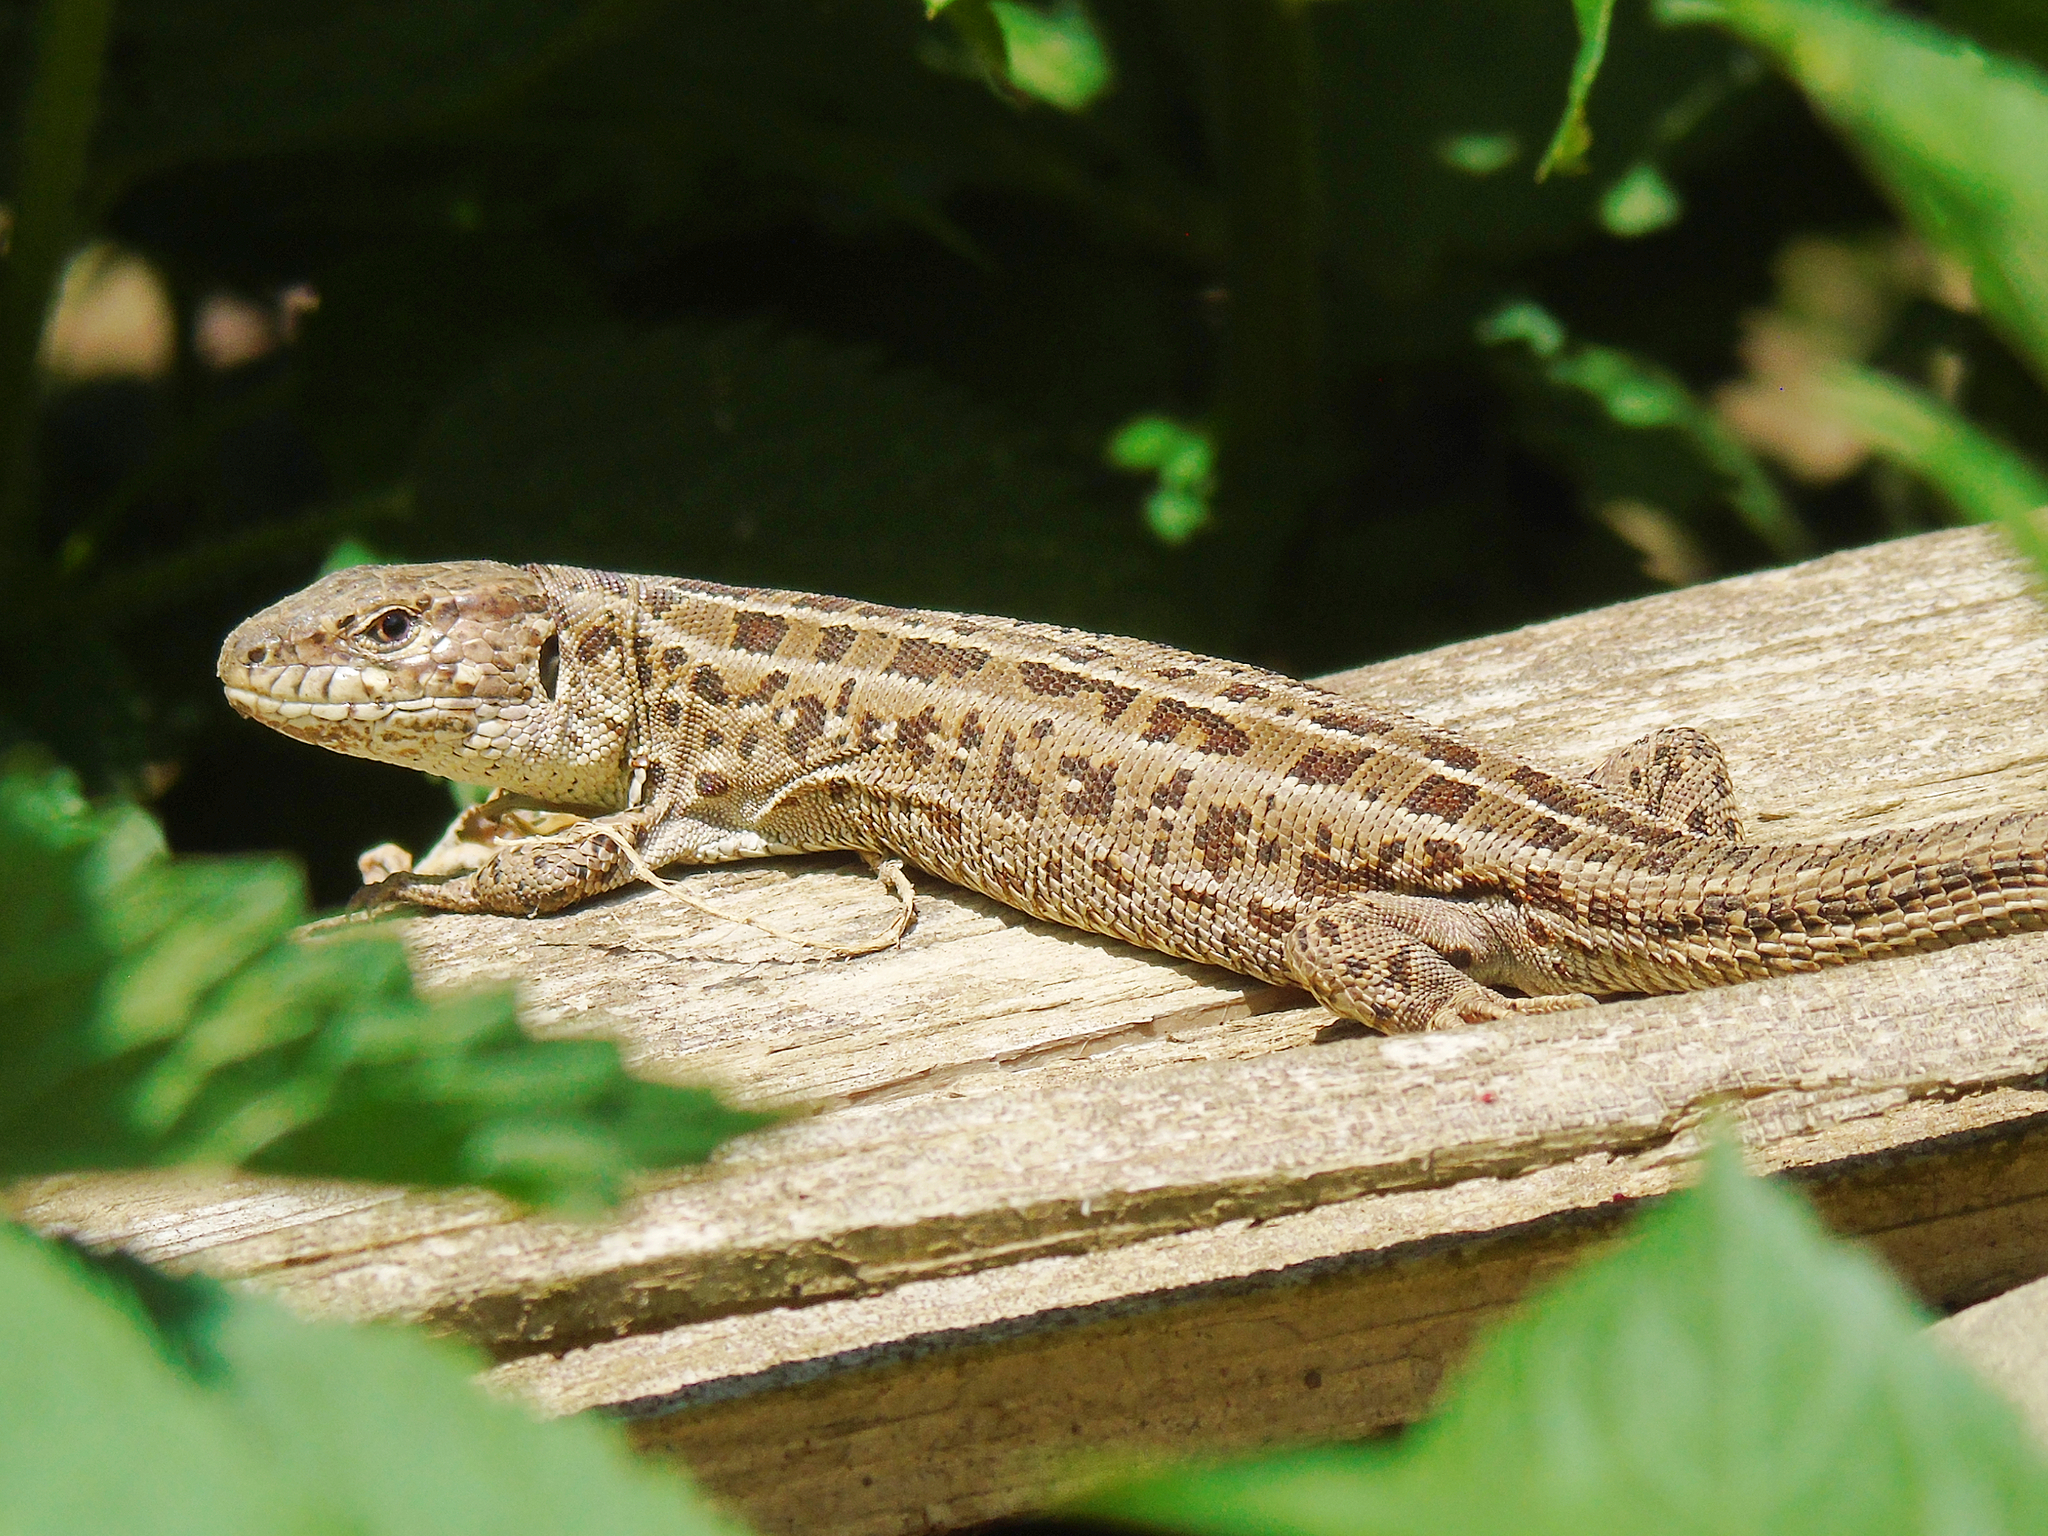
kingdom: Animalia
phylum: Chordata
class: Squamata
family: Lacertidae
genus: Lacerta
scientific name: Lacerta agilis
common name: Sand lizard
